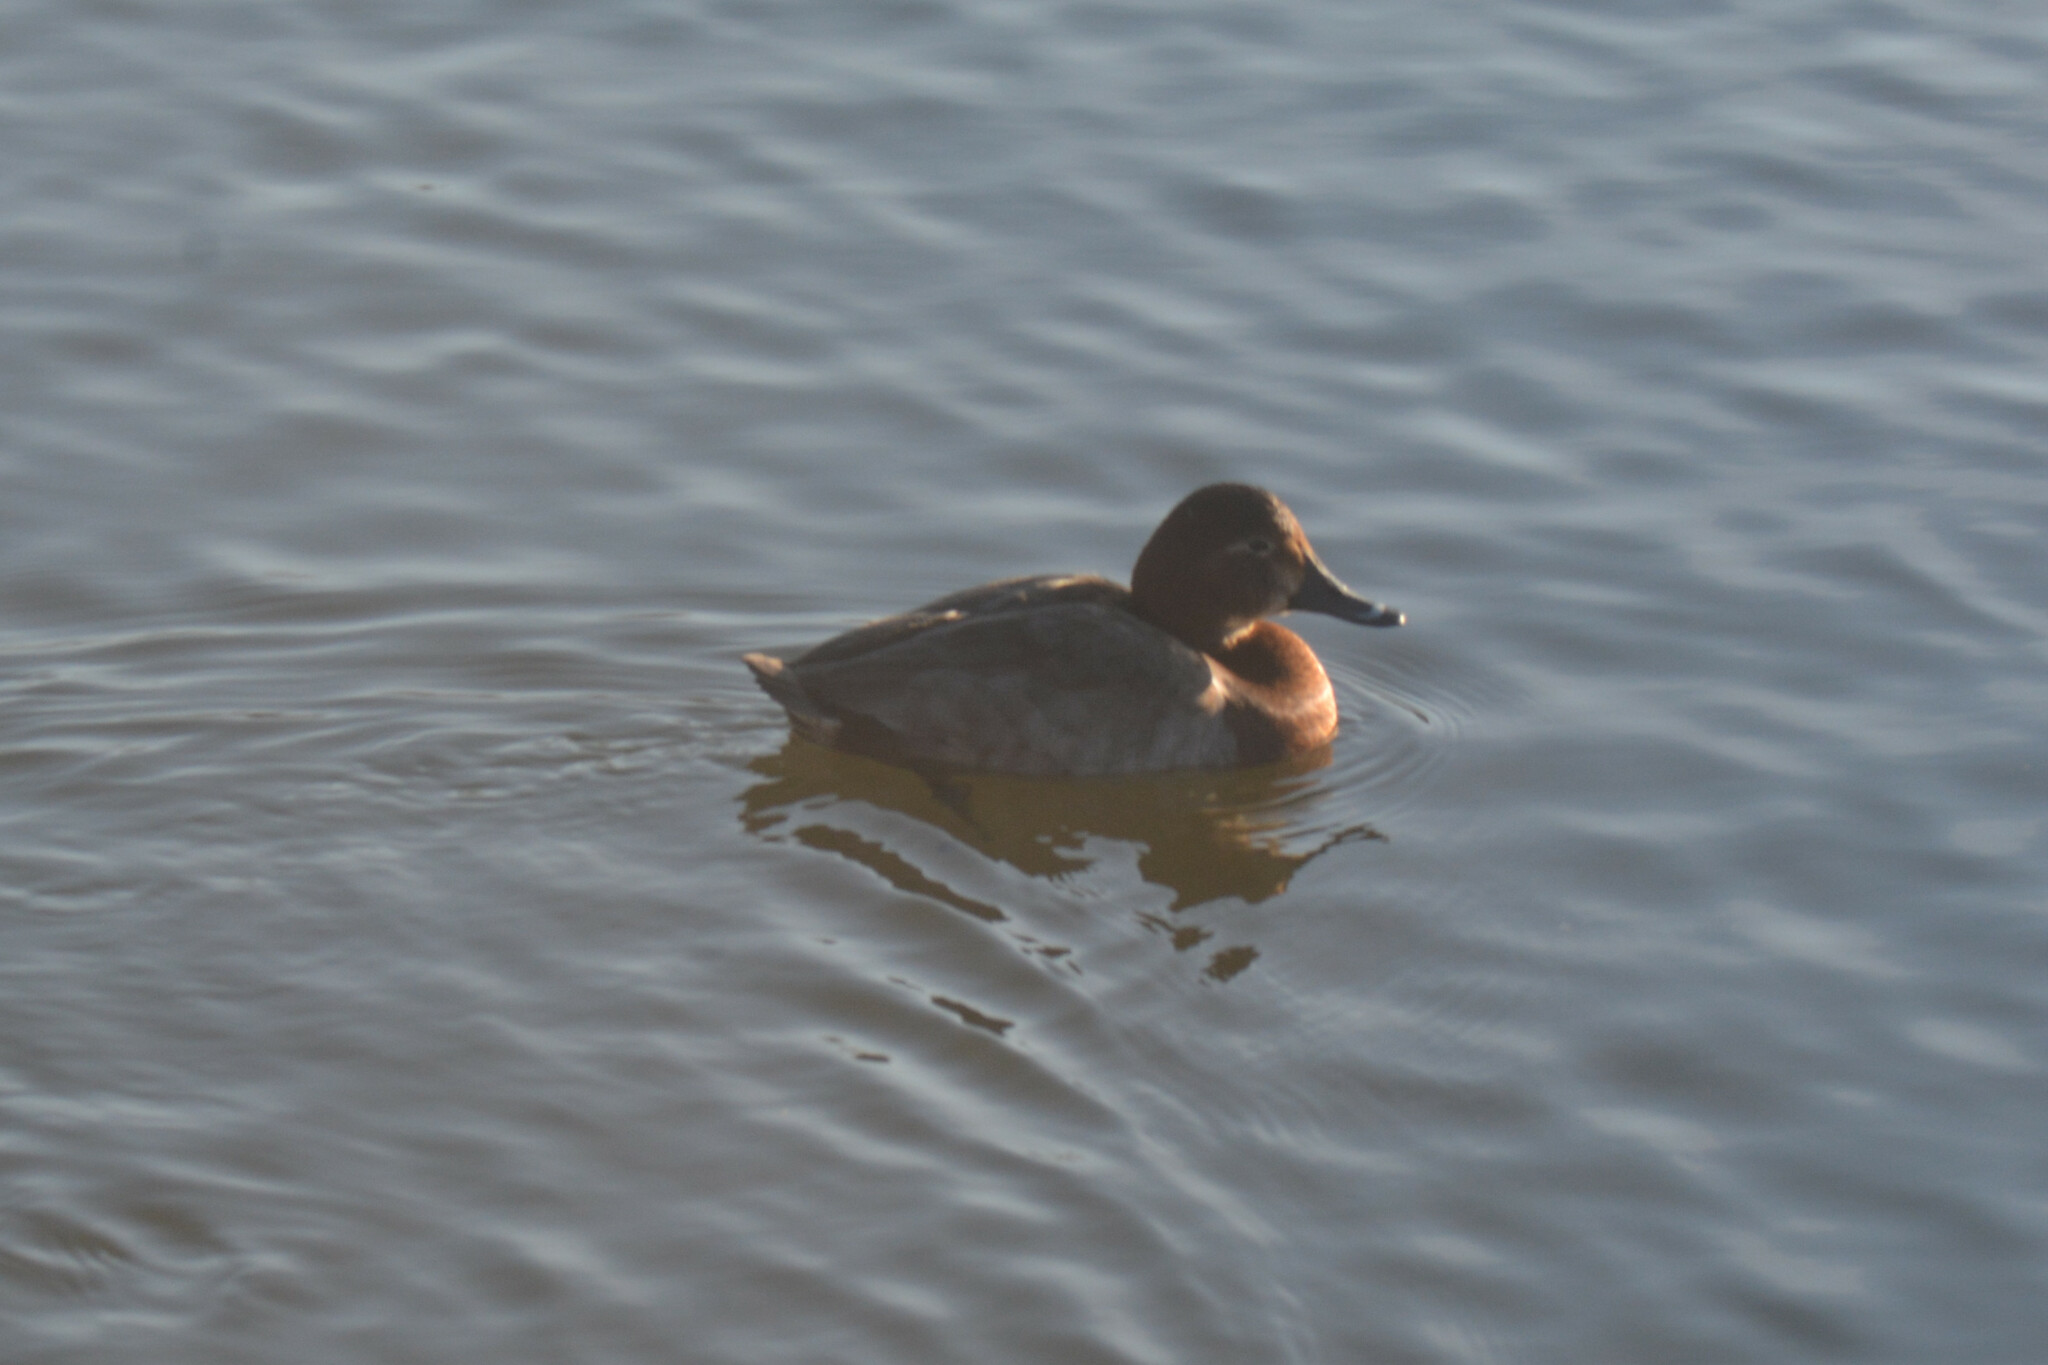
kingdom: Animalia
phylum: Chordata
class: Aves
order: Anseriformes
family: Anatidae
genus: Aythya
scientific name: Aythya ferina
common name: Common pochard
